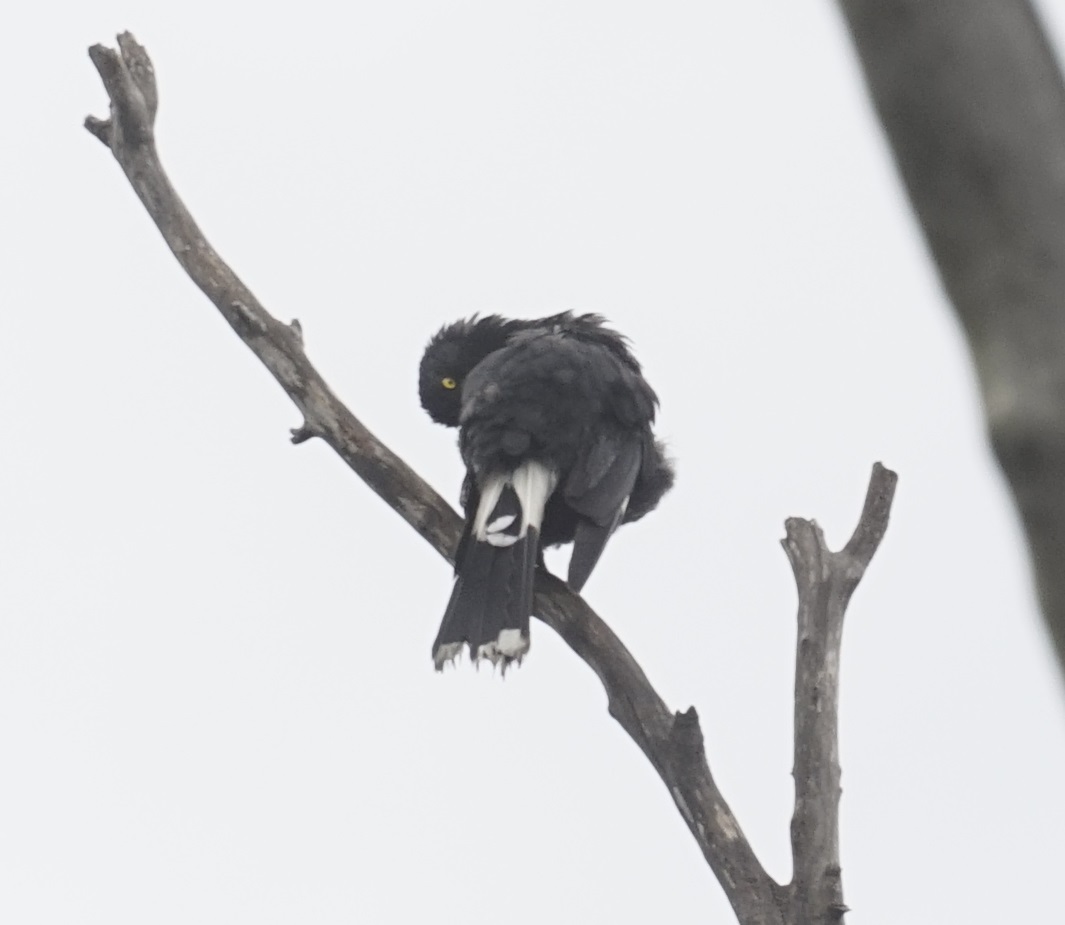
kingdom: Animalia
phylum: Chordata
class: Aves
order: Passeriformes
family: Cracticidae
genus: Strepera
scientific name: Strepera graculina
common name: Pied currawong
